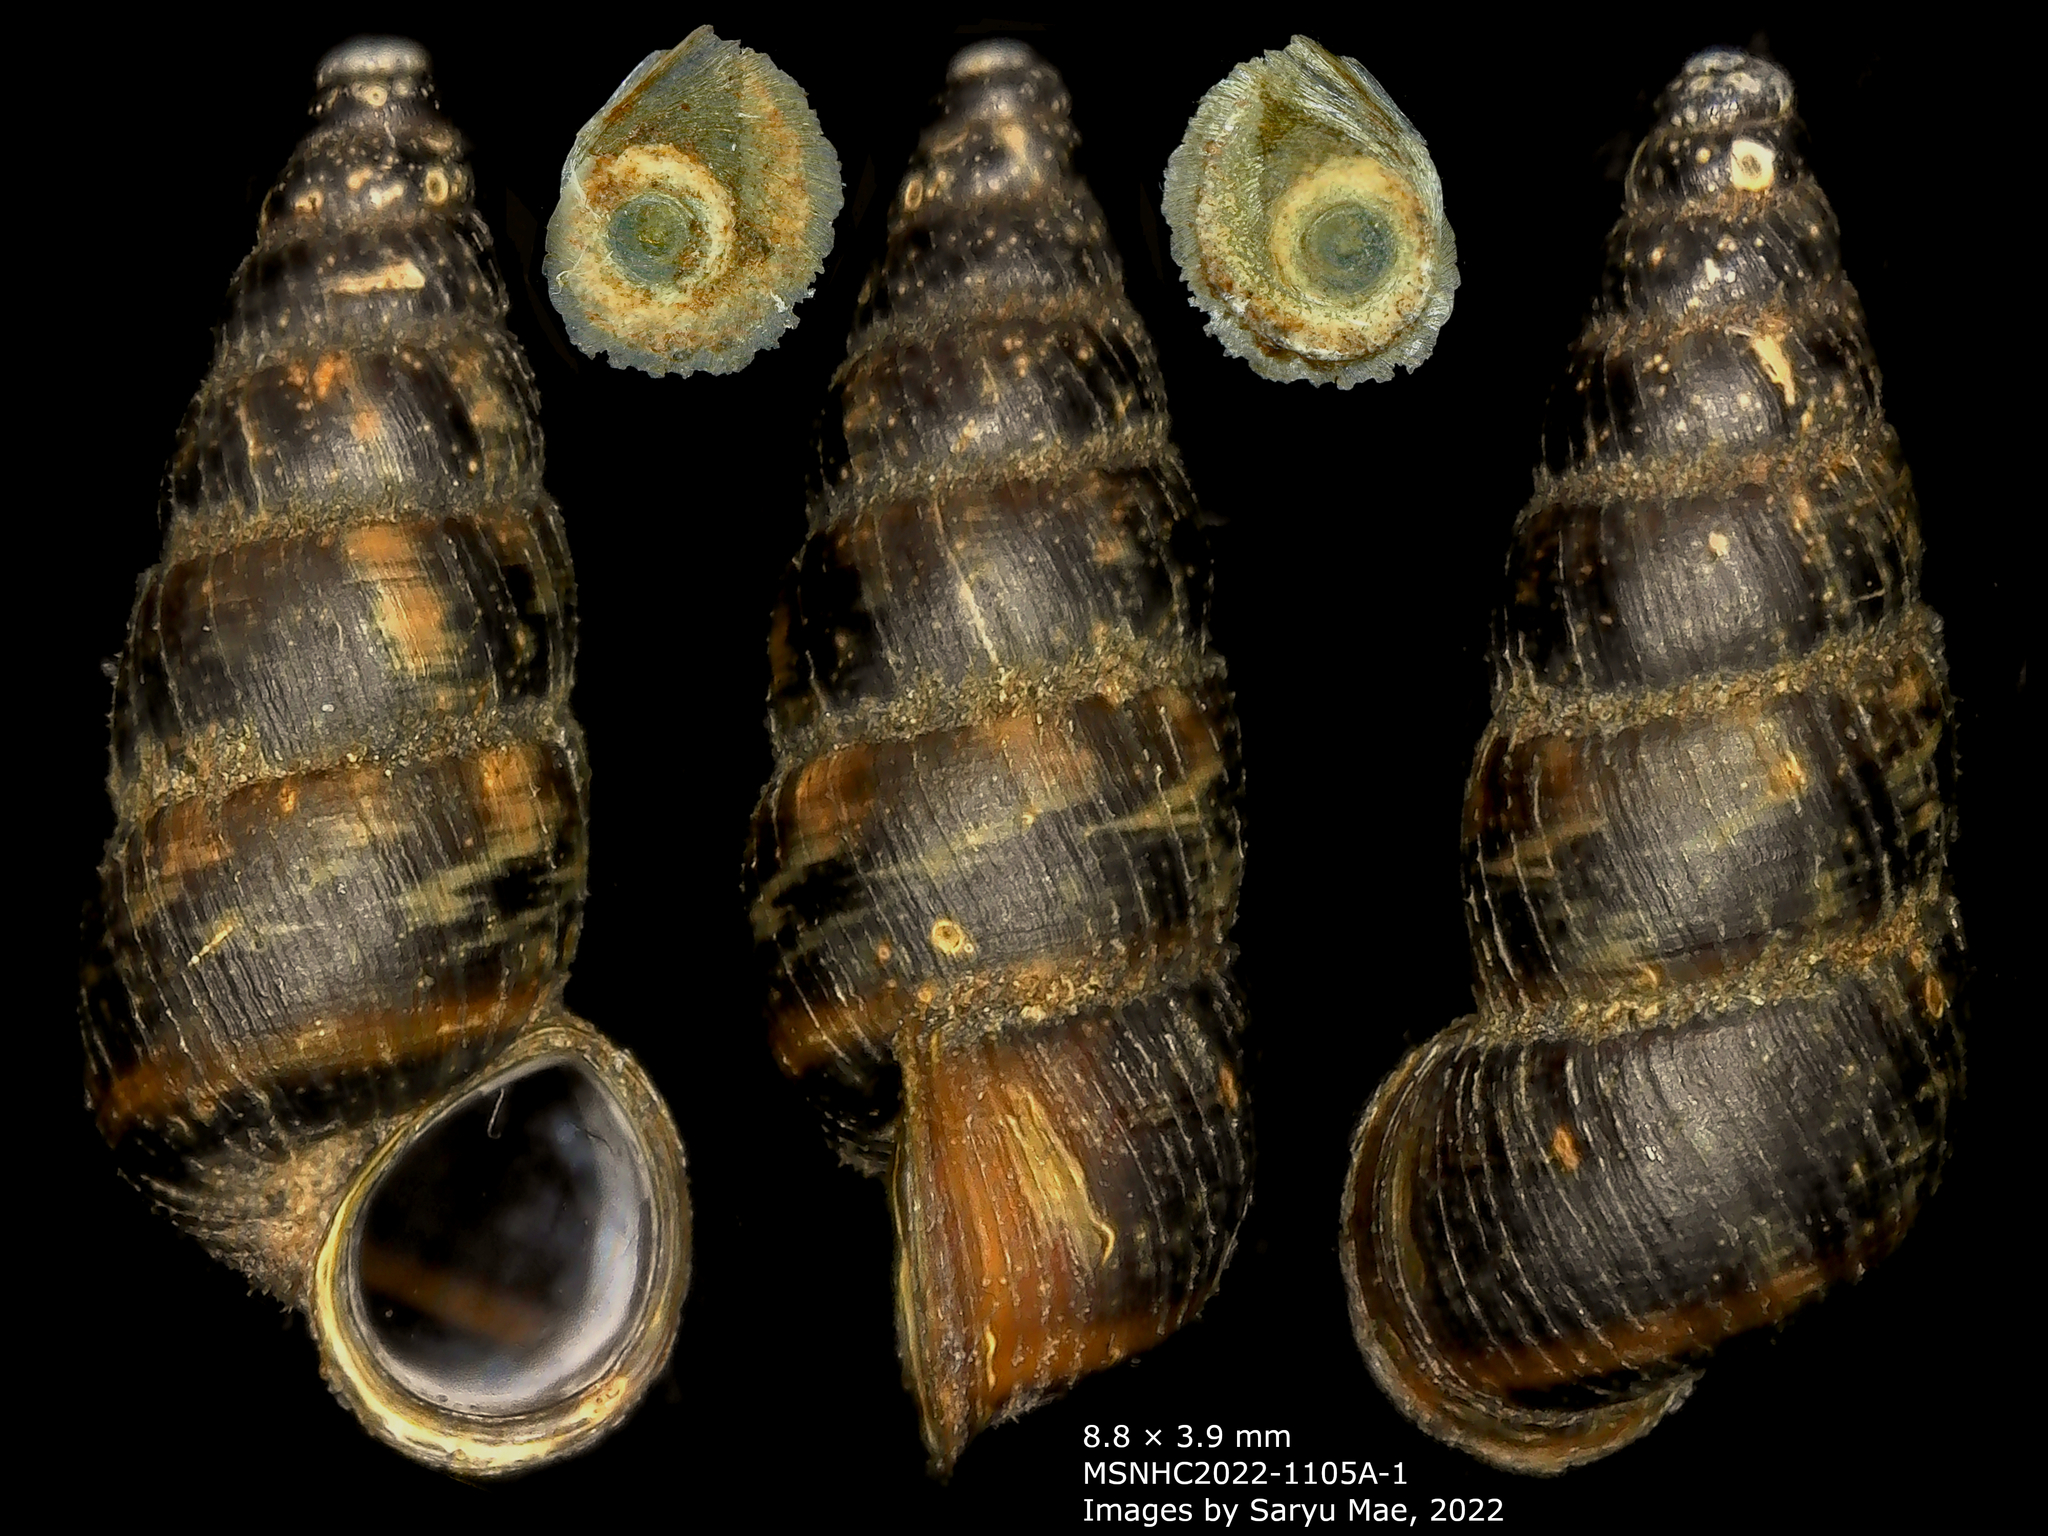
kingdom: Animalia
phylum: Mollusca
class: Gastropoda
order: Architaenioglossa
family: Pupinidae
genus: Liarea
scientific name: Liarea turriculata
